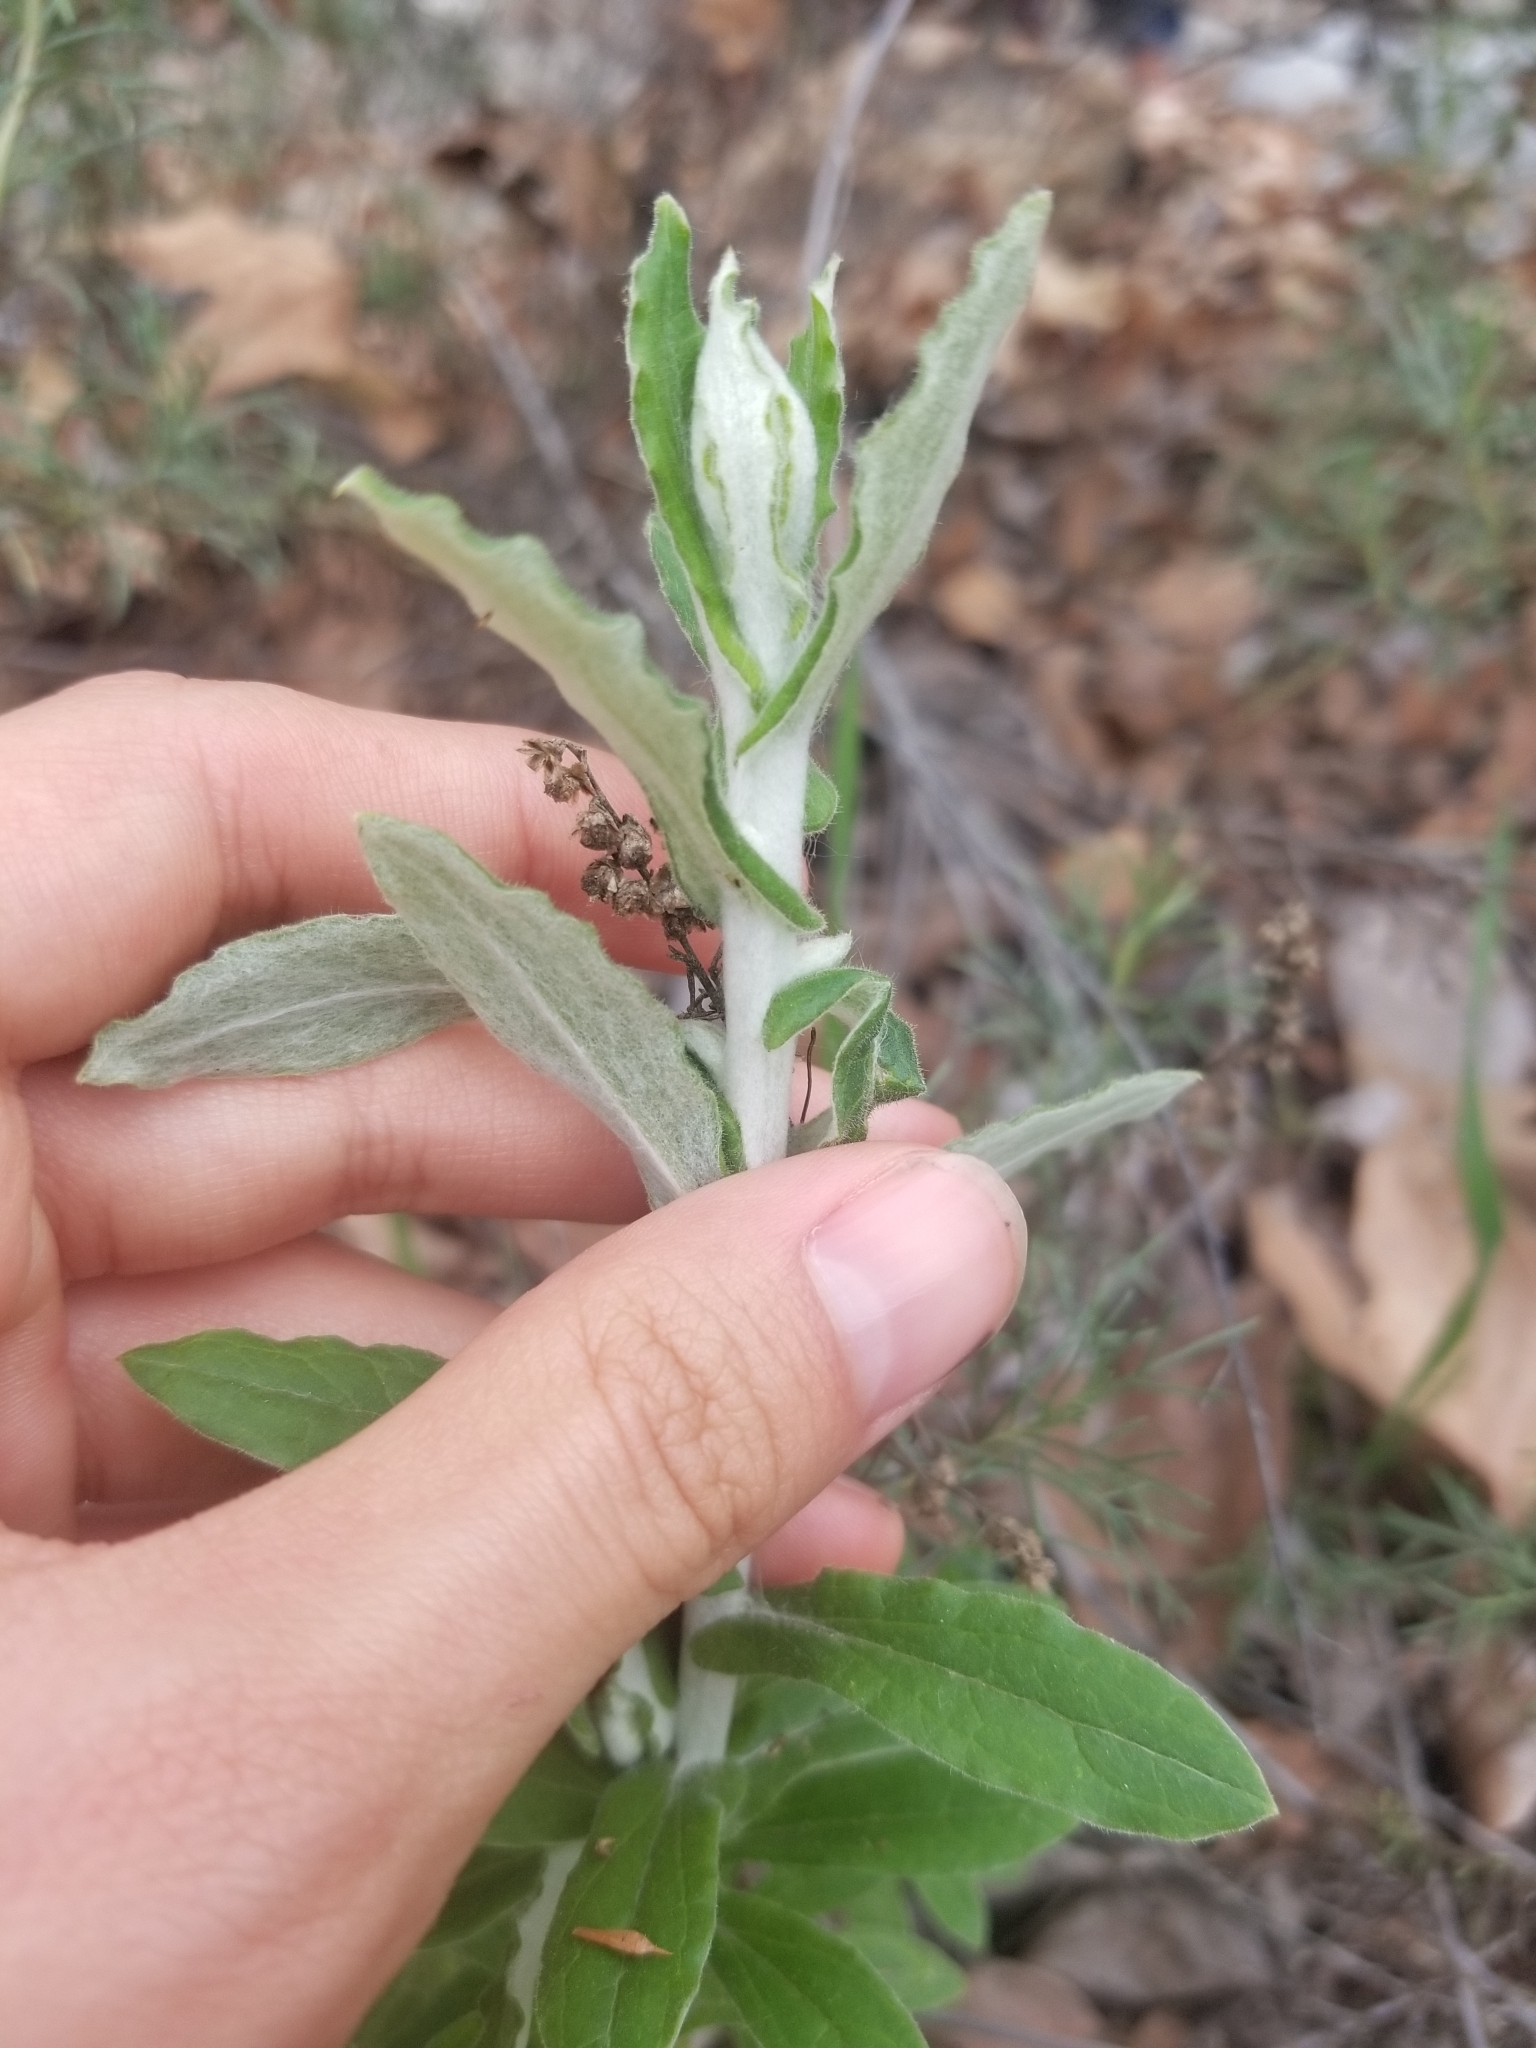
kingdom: Plantae
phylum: Tracheophyta
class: Magnoliopsida
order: Asterales
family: Asteraceae
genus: Pseudognaphalium
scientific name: Pseudognaphalium biolettii
